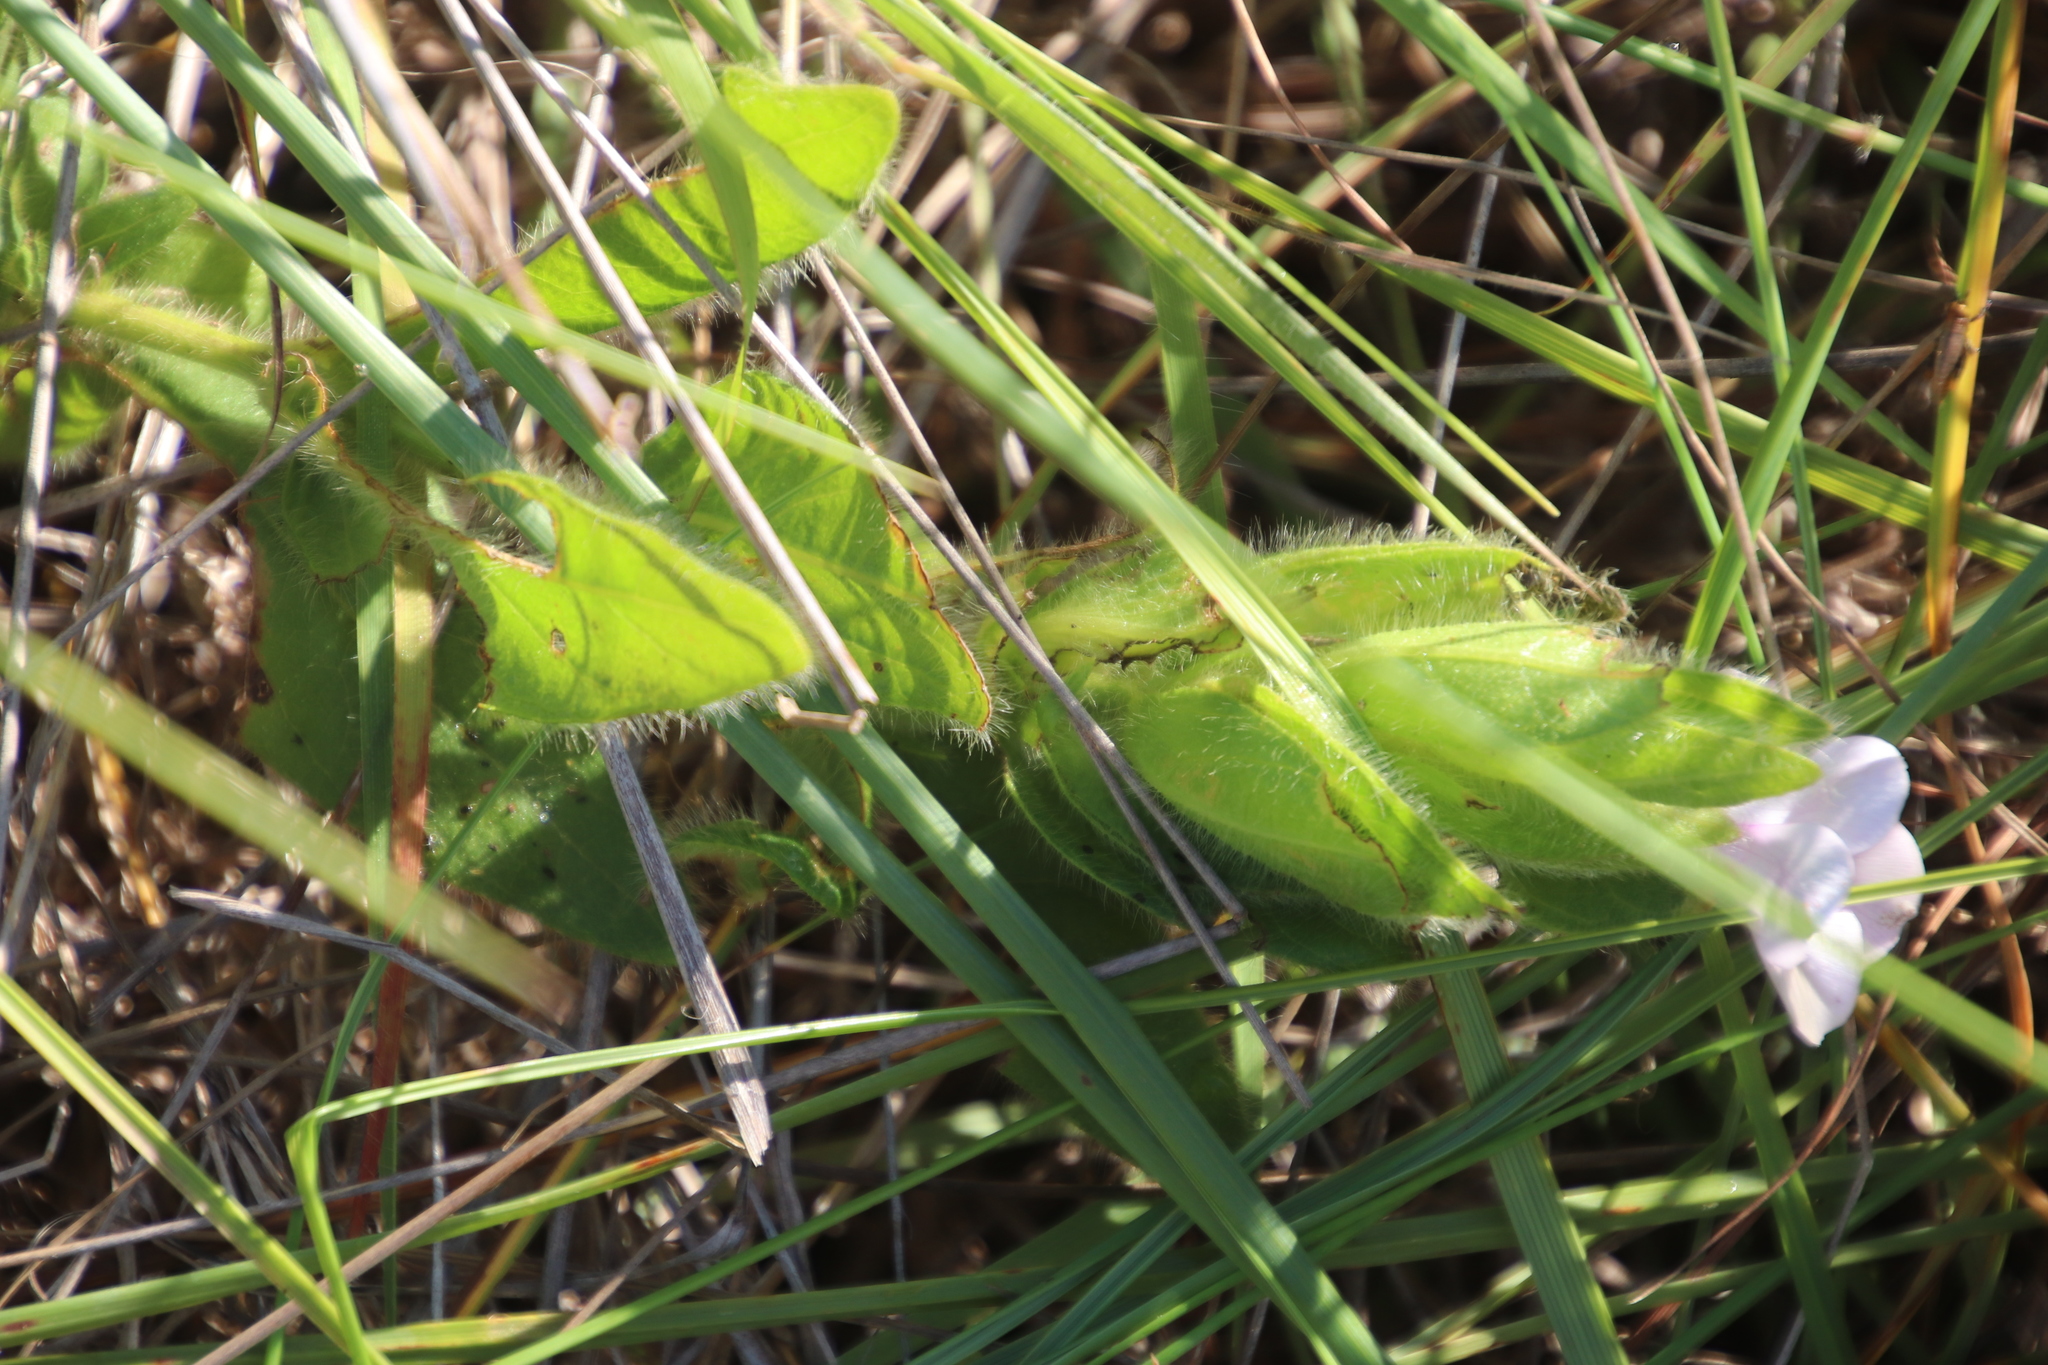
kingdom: Plantae
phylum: Tracheophyta
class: Magnoliopsida
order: Lamiales
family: Acanthaceae
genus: Barleria
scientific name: Barleria ovata
